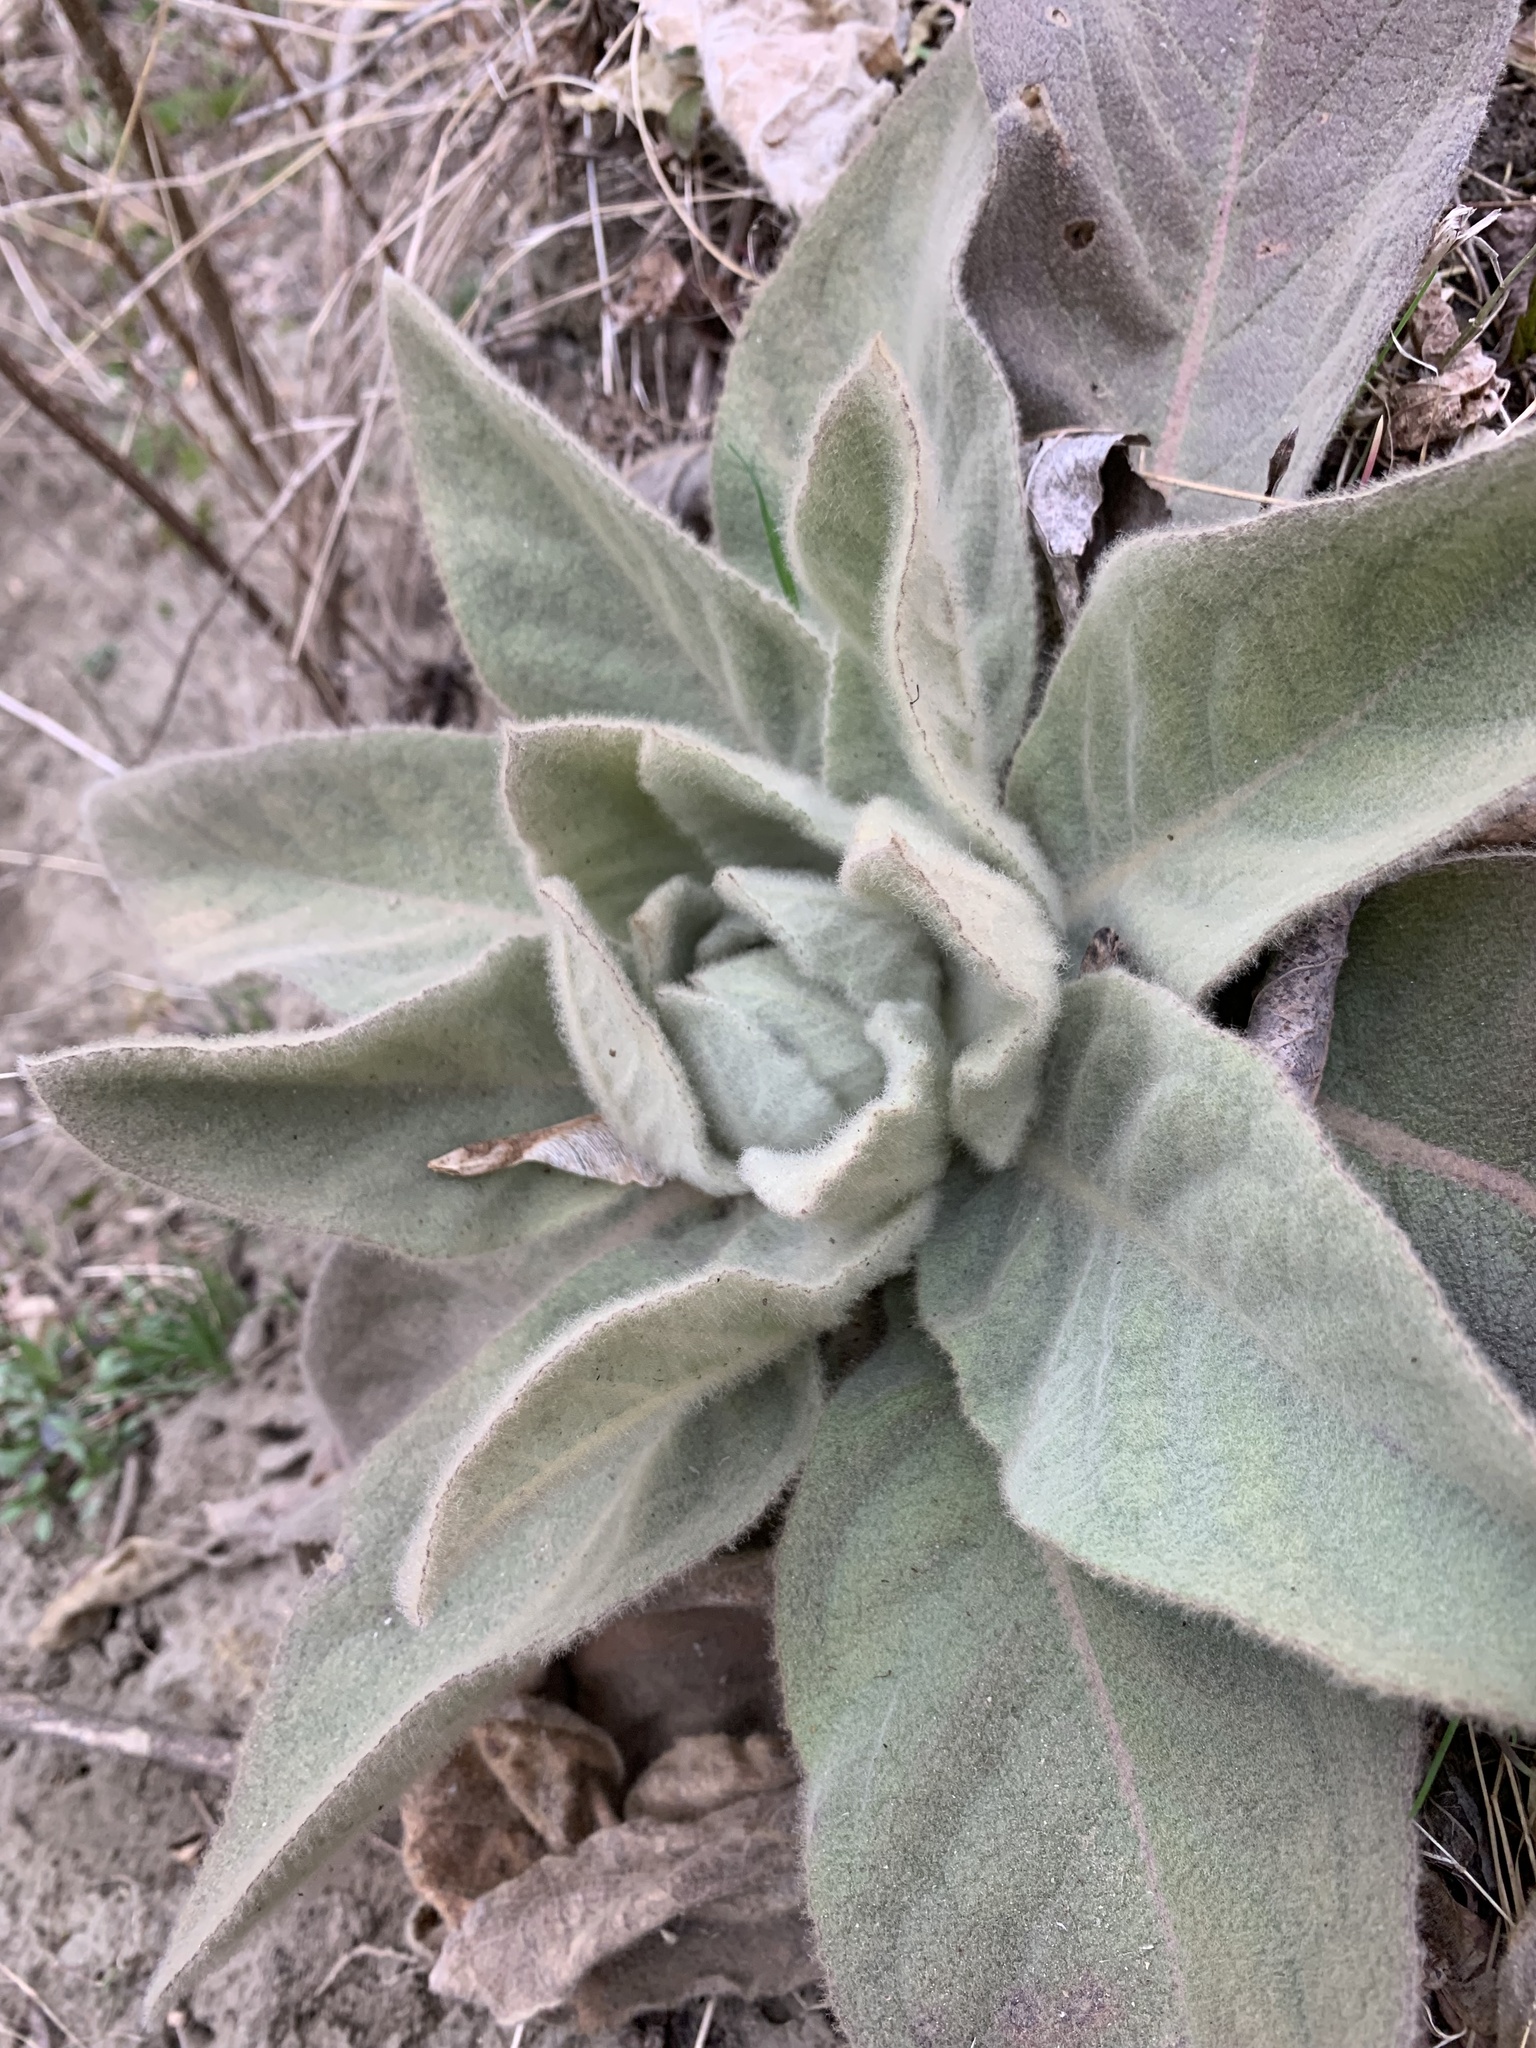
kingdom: Plantae
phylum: Tracheophyta
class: Magnoliopsida
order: Lamiales
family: Scrophulariaceae
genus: Verbascum
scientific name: Verbascum thapsus
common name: Common mullein
